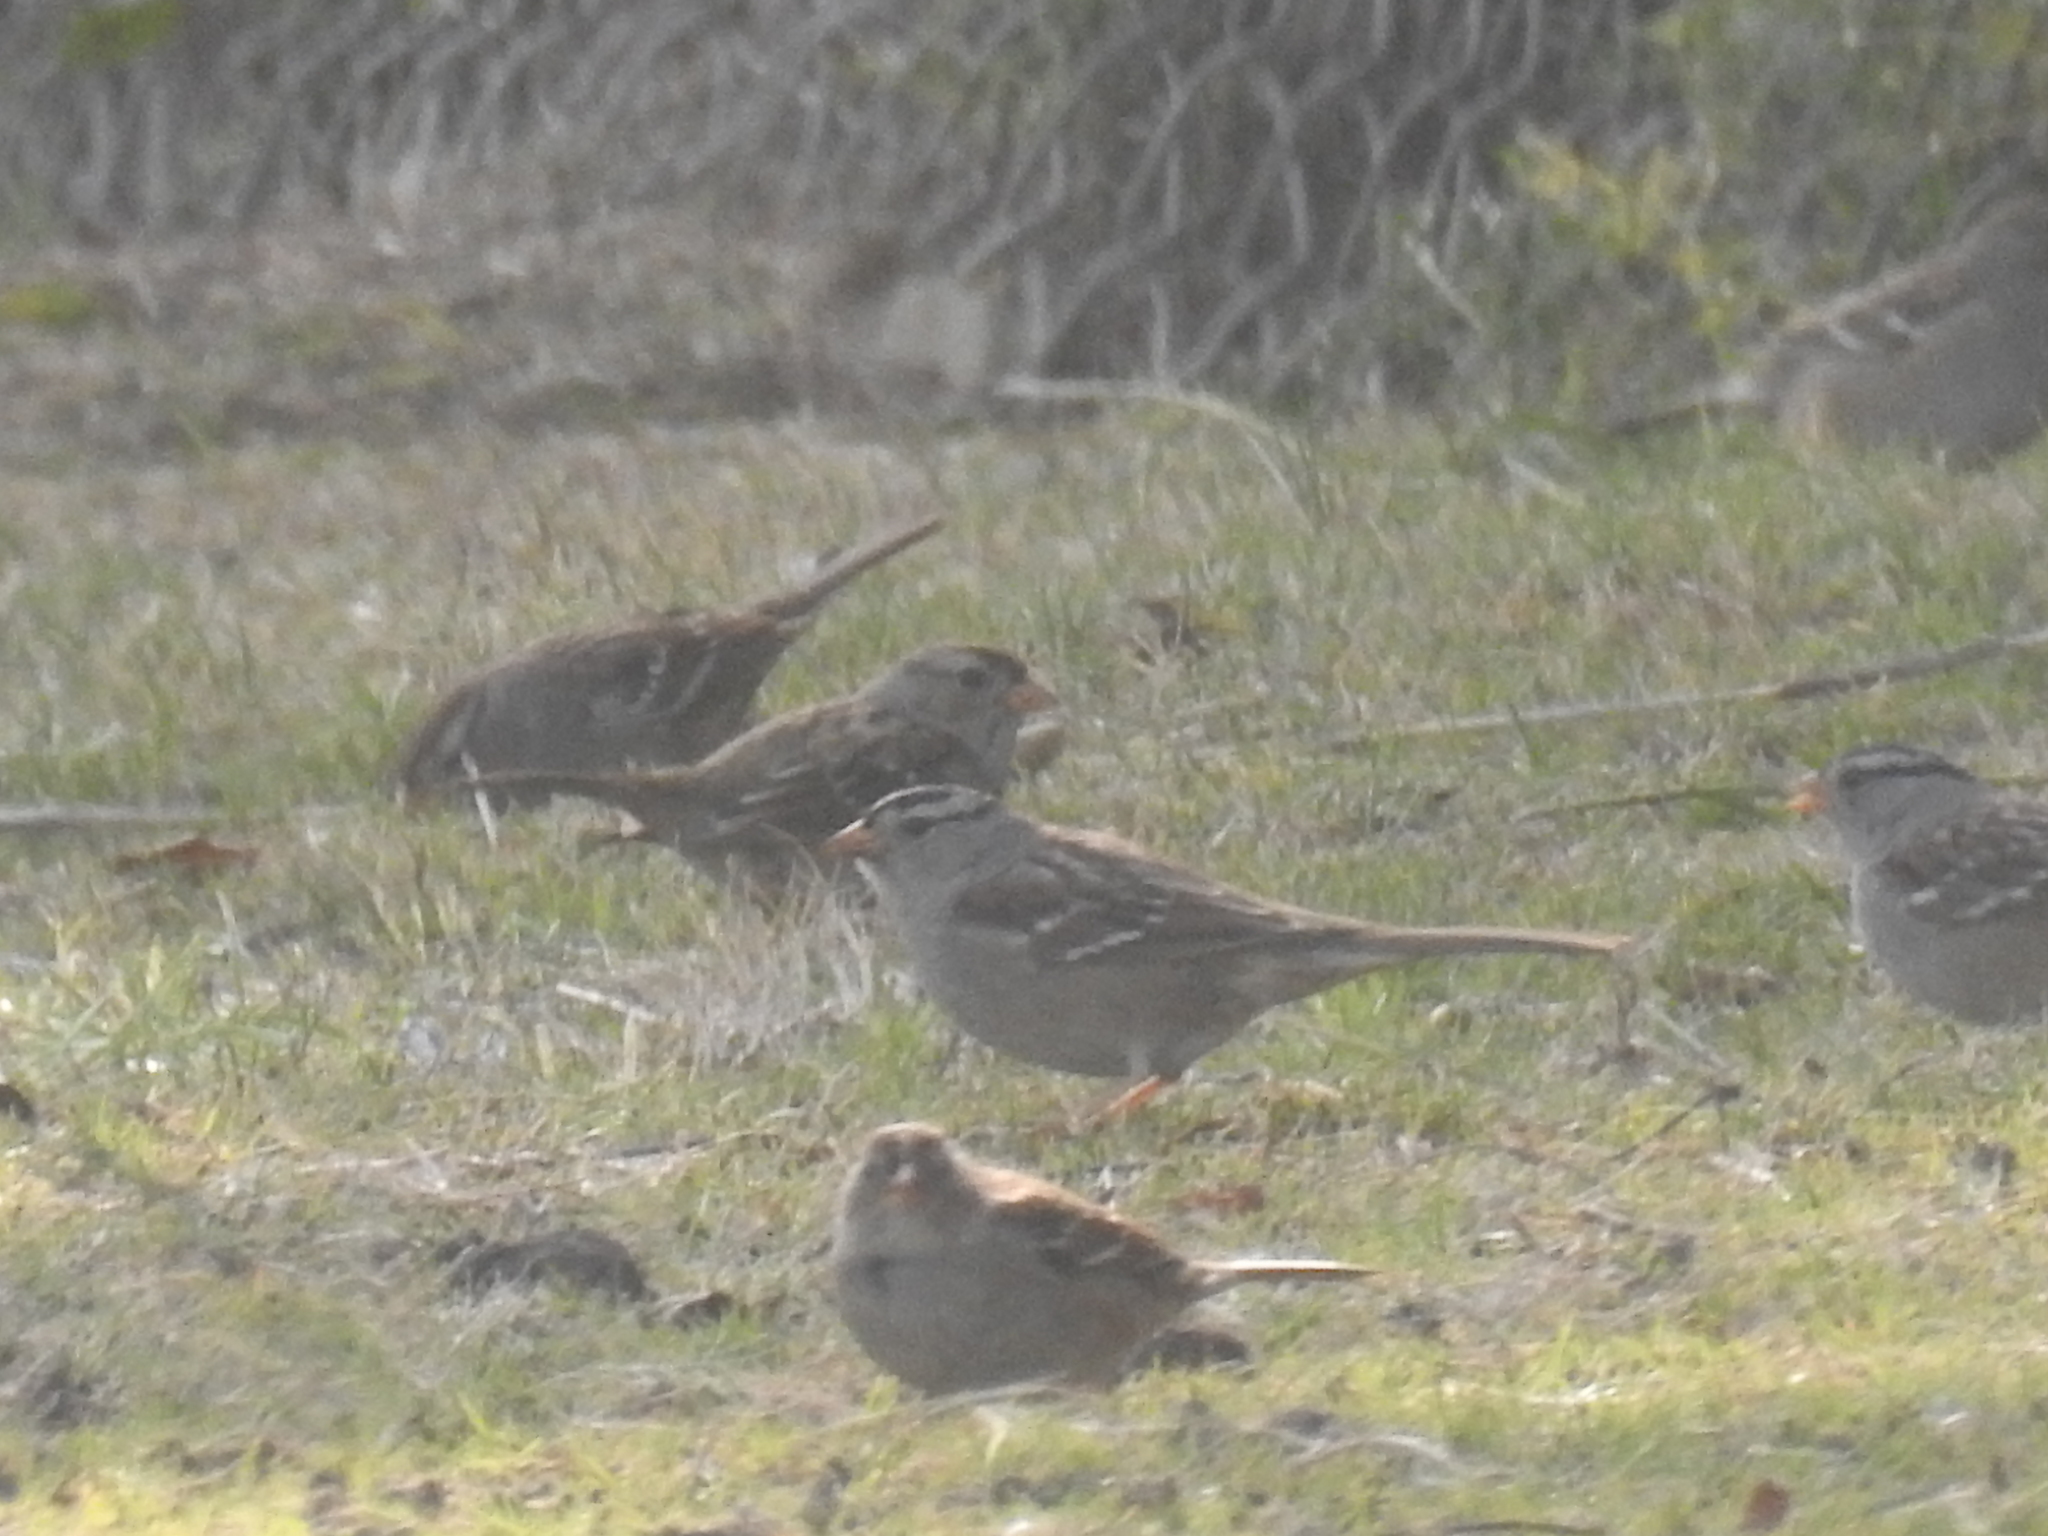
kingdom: Animalia
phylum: Chordata
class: Aves
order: Passeriformes
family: Passerellidae
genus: Zonotrichia
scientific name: Zonotrichia leucophrys
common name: White-crowned sparrow
